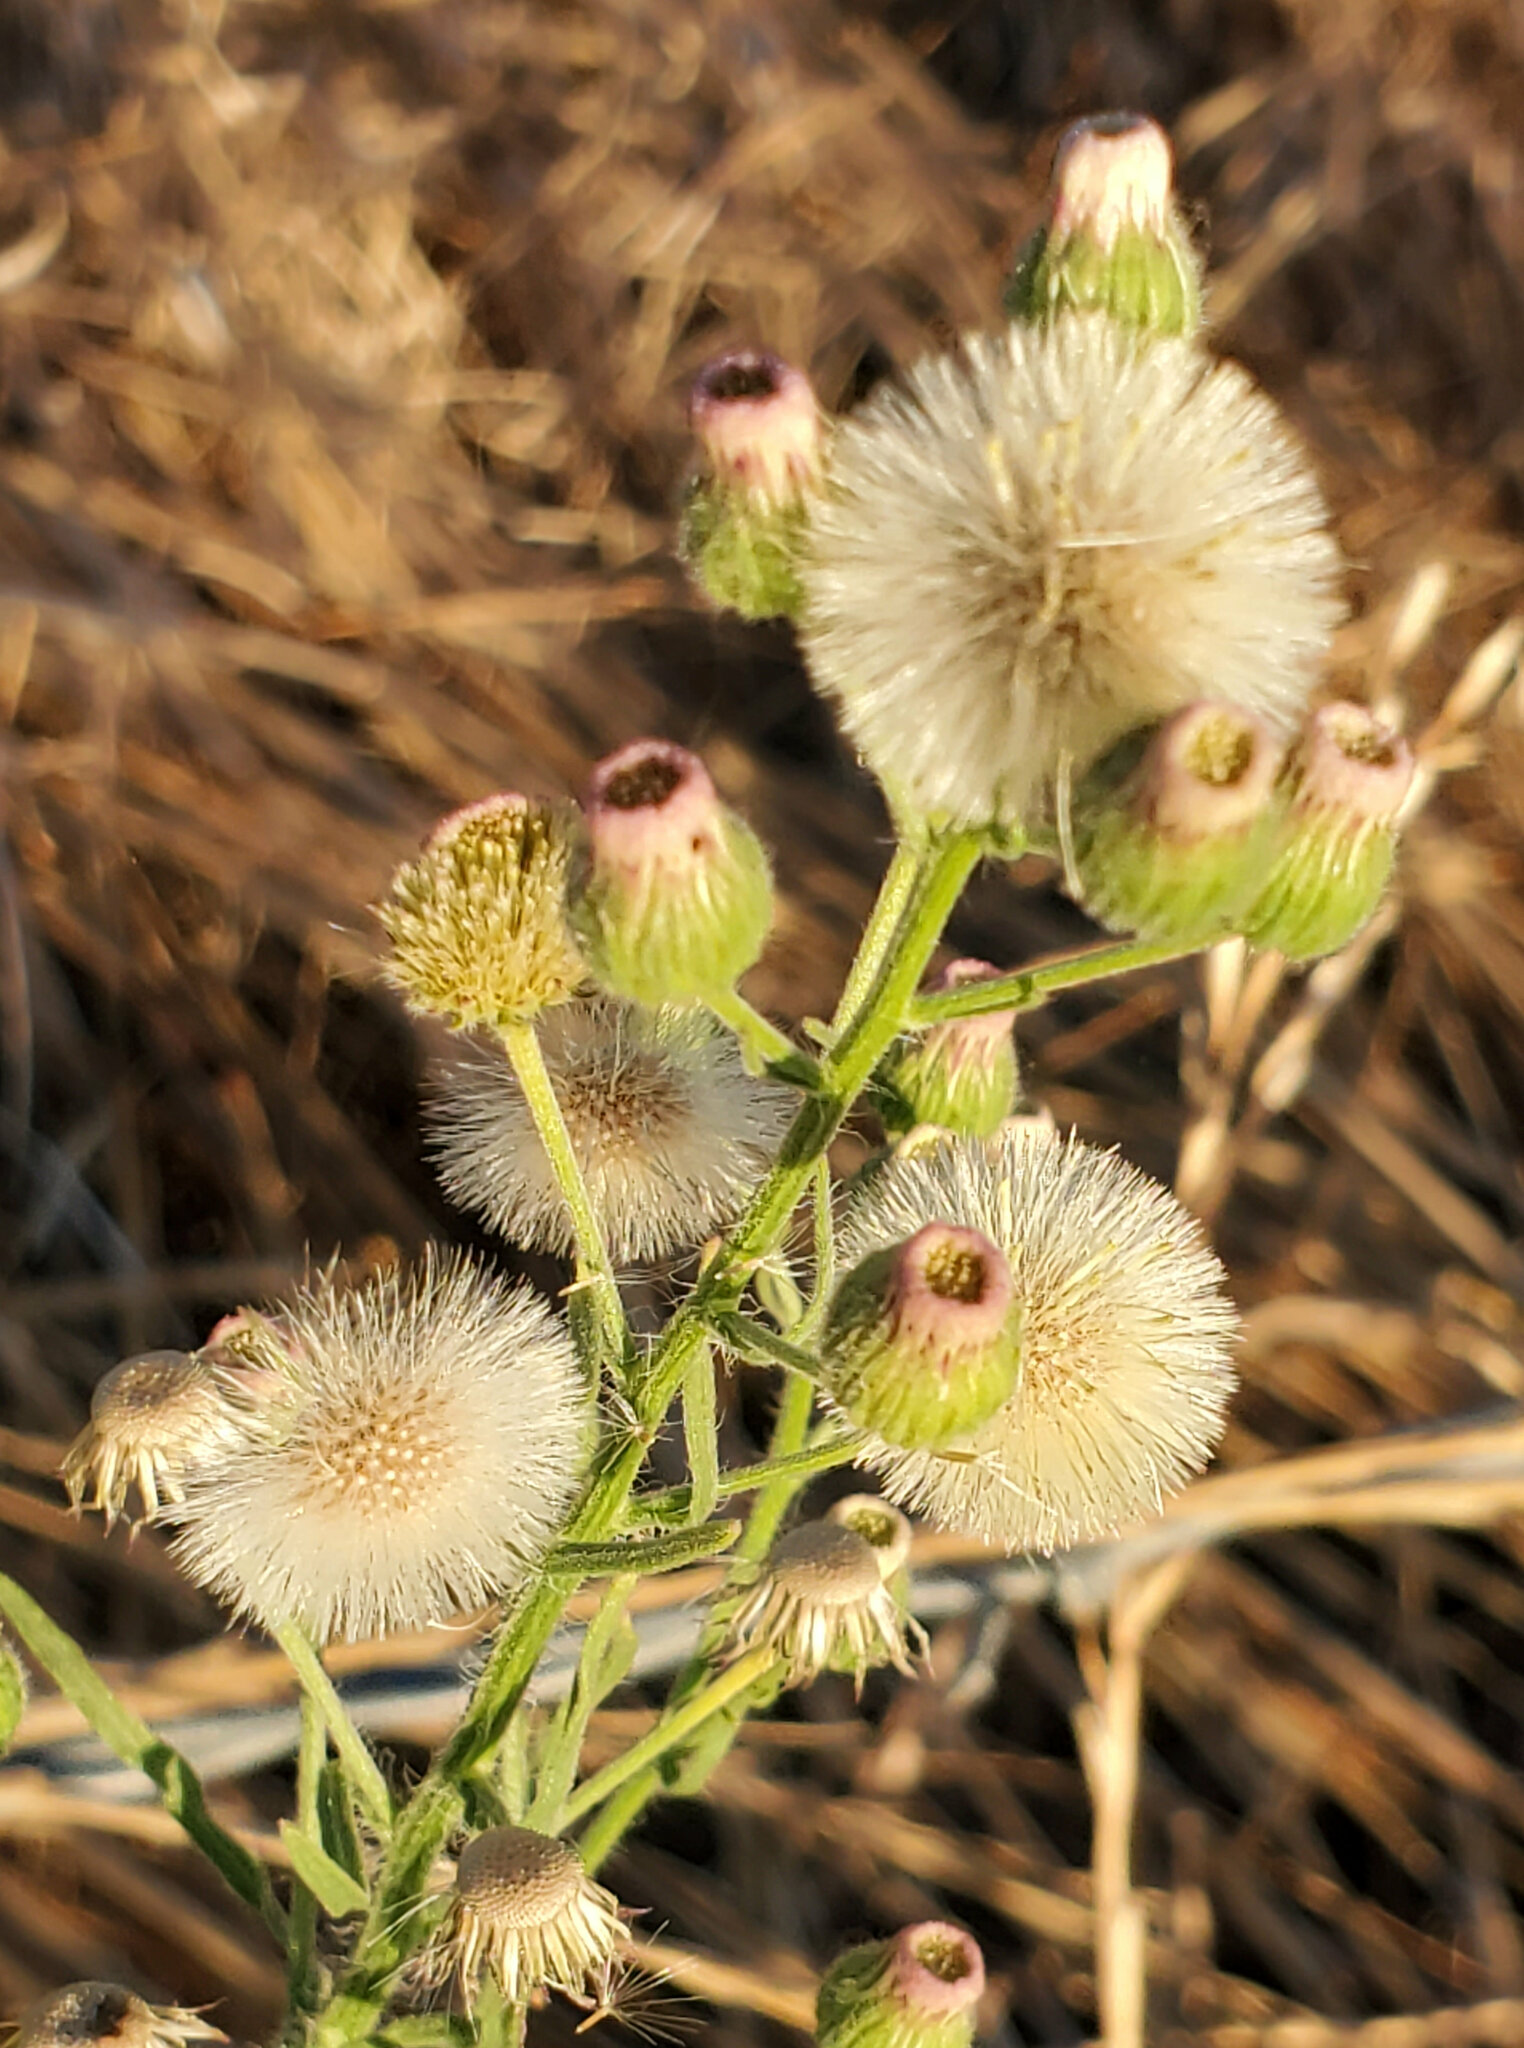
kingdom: Plantae
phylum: Tracheophyta
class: Magnoliopsida
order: Asterales
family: Asteraceae
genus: Erigeron
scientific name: Erigeron bonariensis
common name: Argentine fleabane
